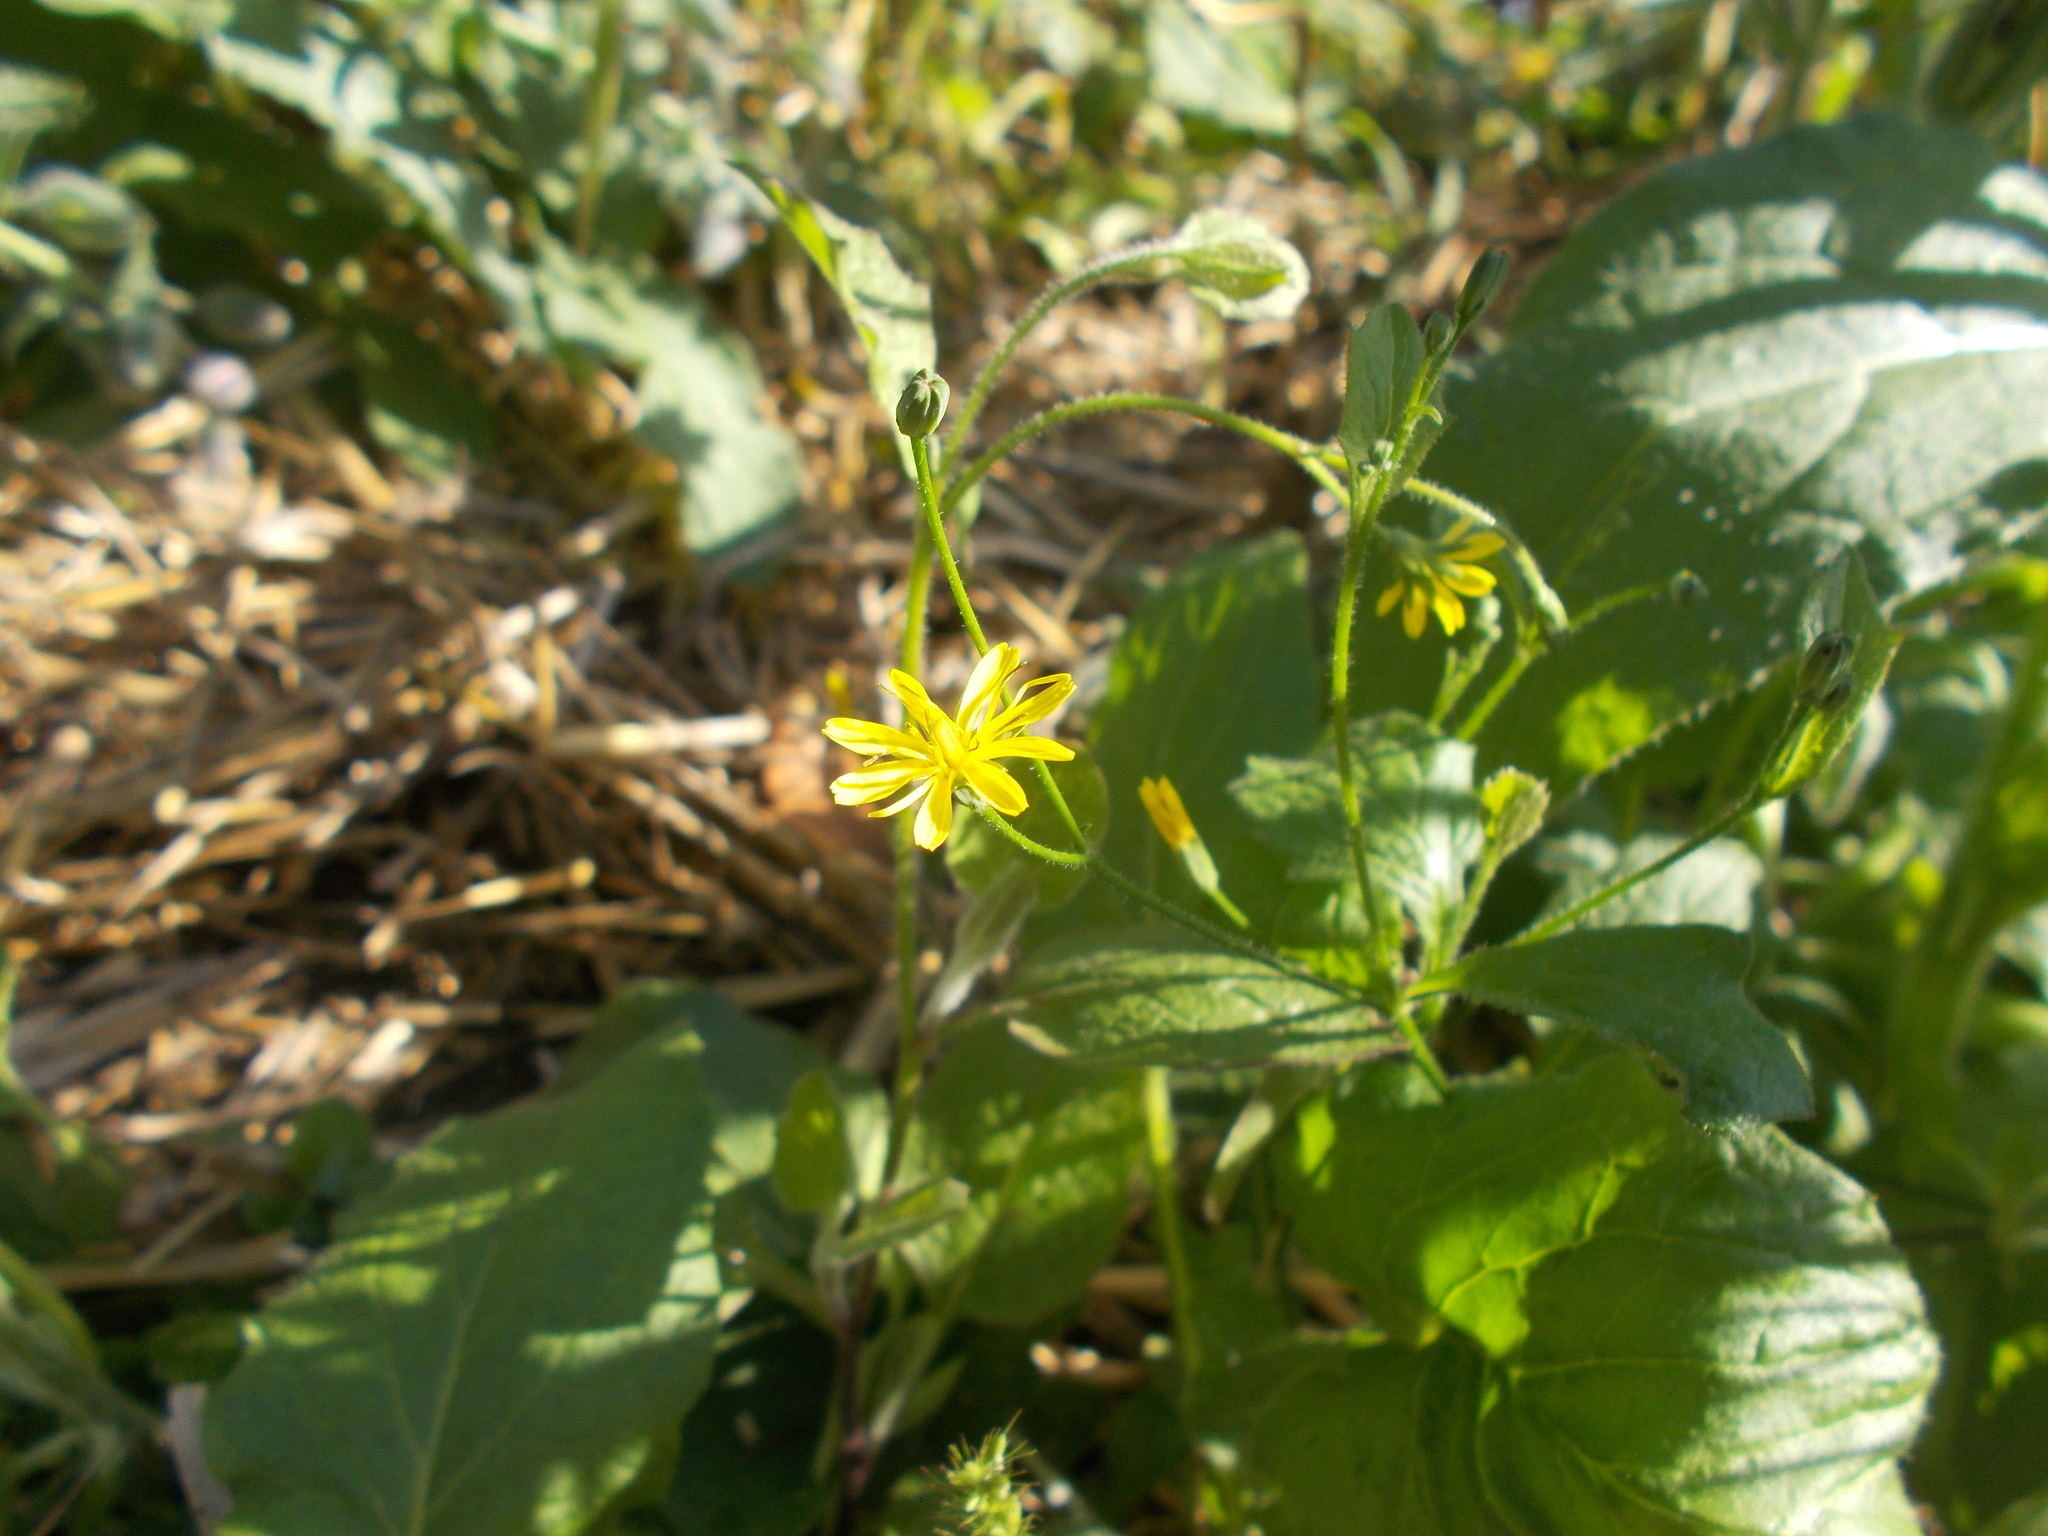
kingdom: Plantae
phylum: Tracheophyta
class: Magnoliopsida
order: Asterales
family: Asteraceae
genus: Lapsana
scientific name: Lapsana communis
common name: Nipplewort
